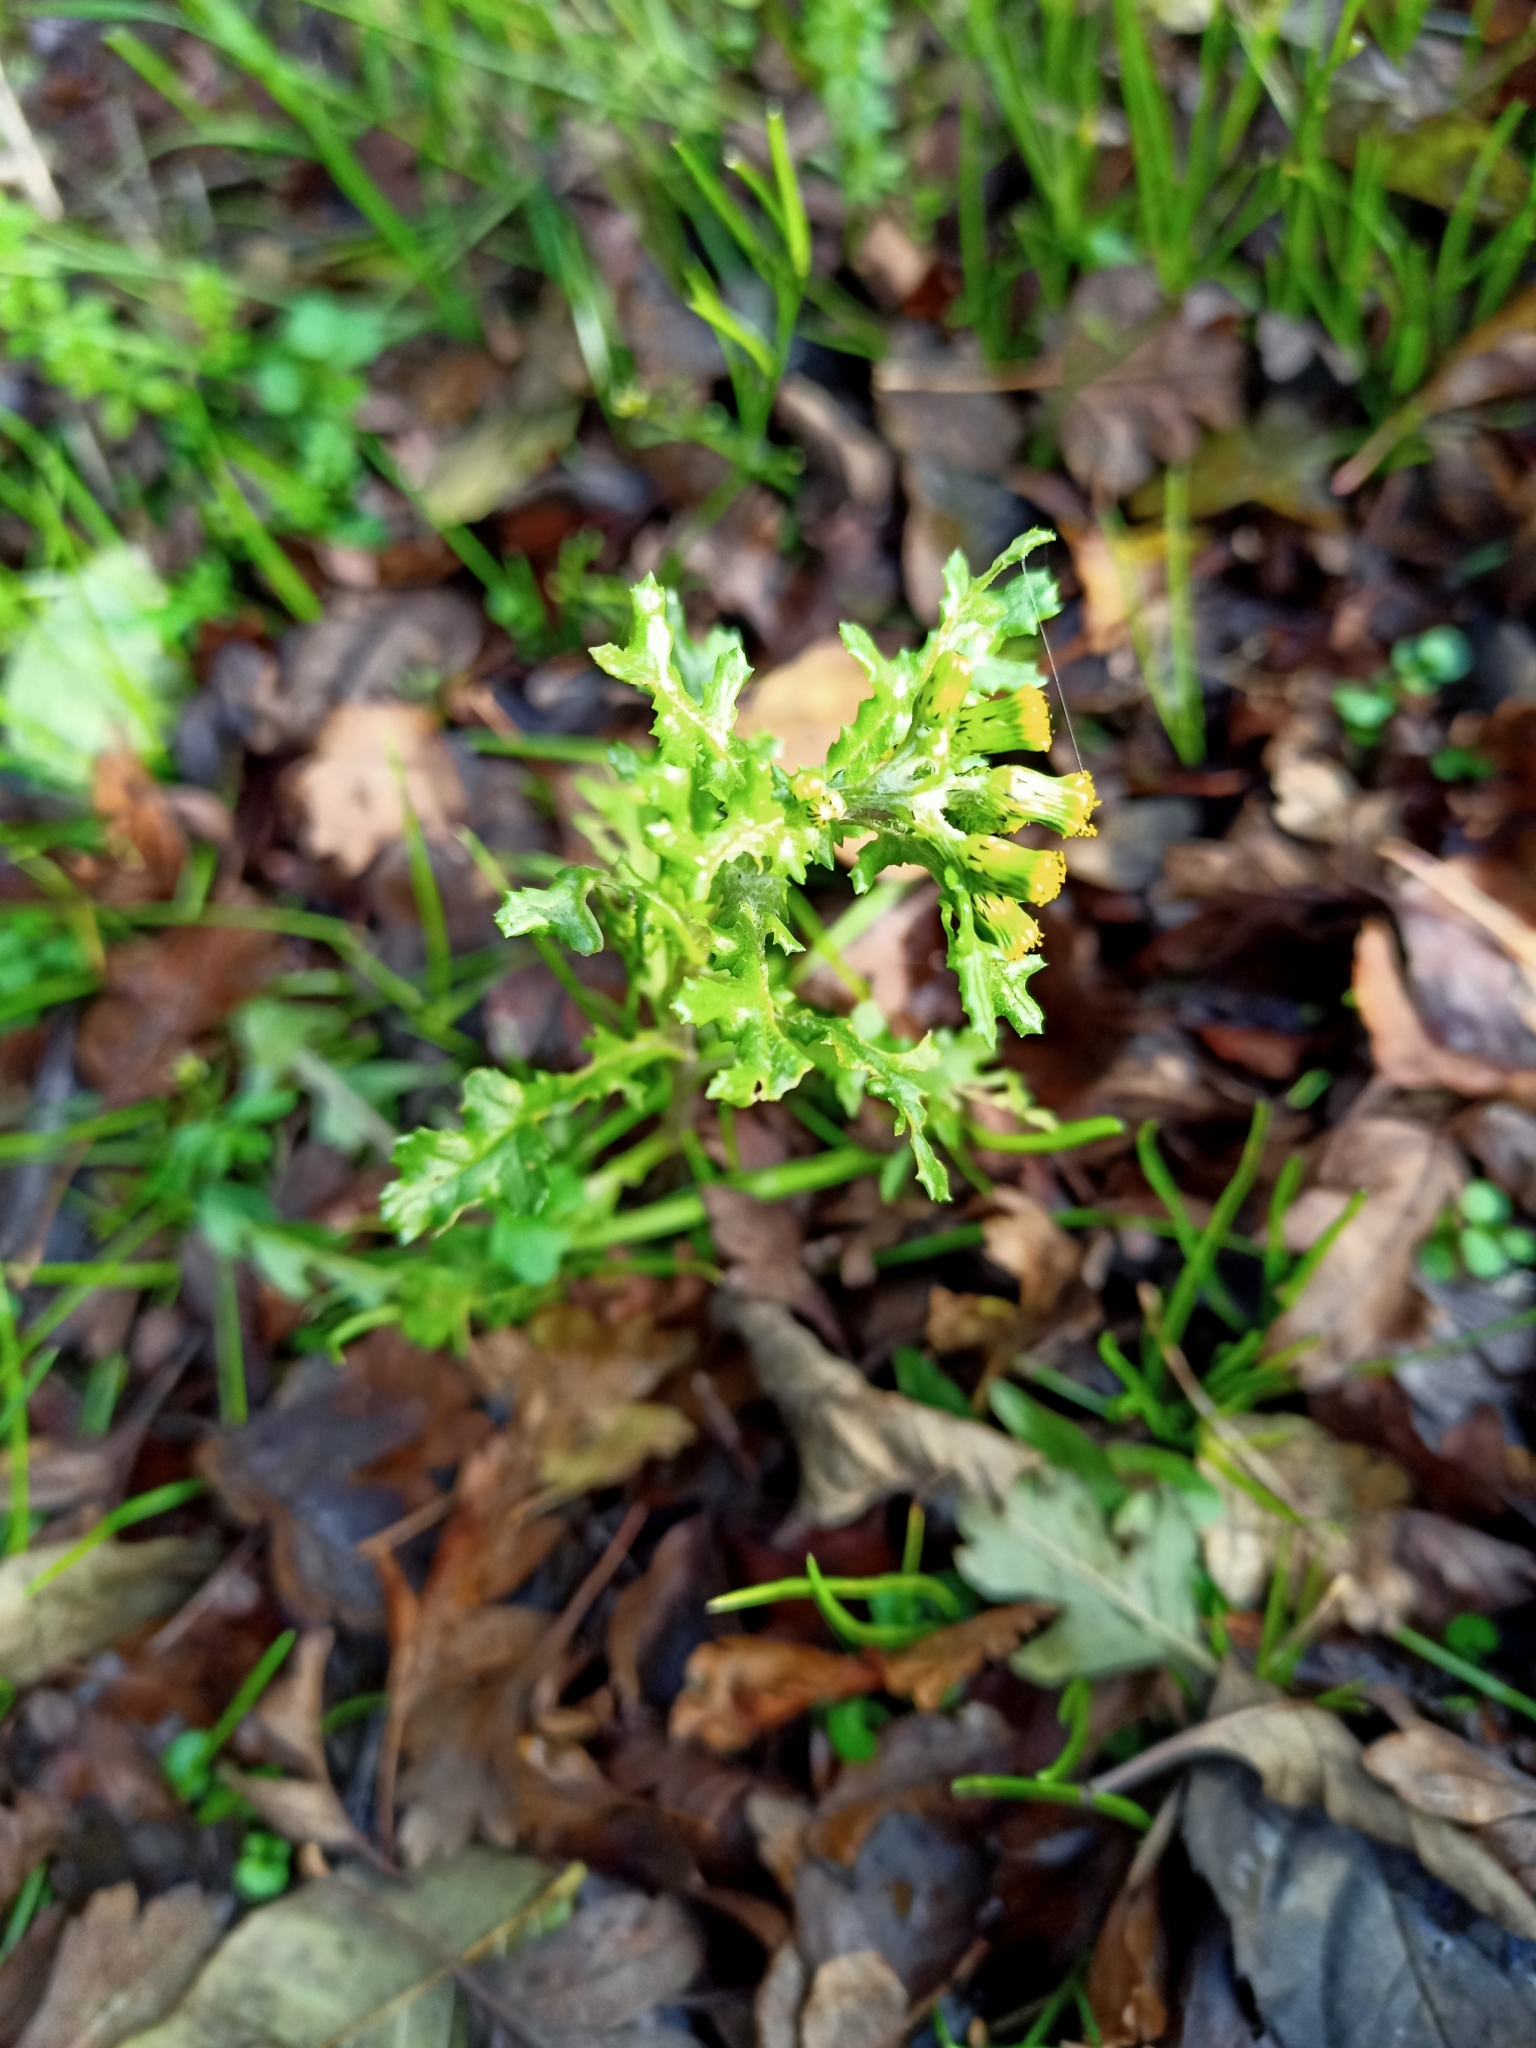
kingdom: Plantae
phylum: Tracheophyta
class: Magnoliopsida
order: Asterales
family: Asteraceae
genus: Senecio
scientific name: Senecio vulgaris
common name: Old-man-in-the-spring
